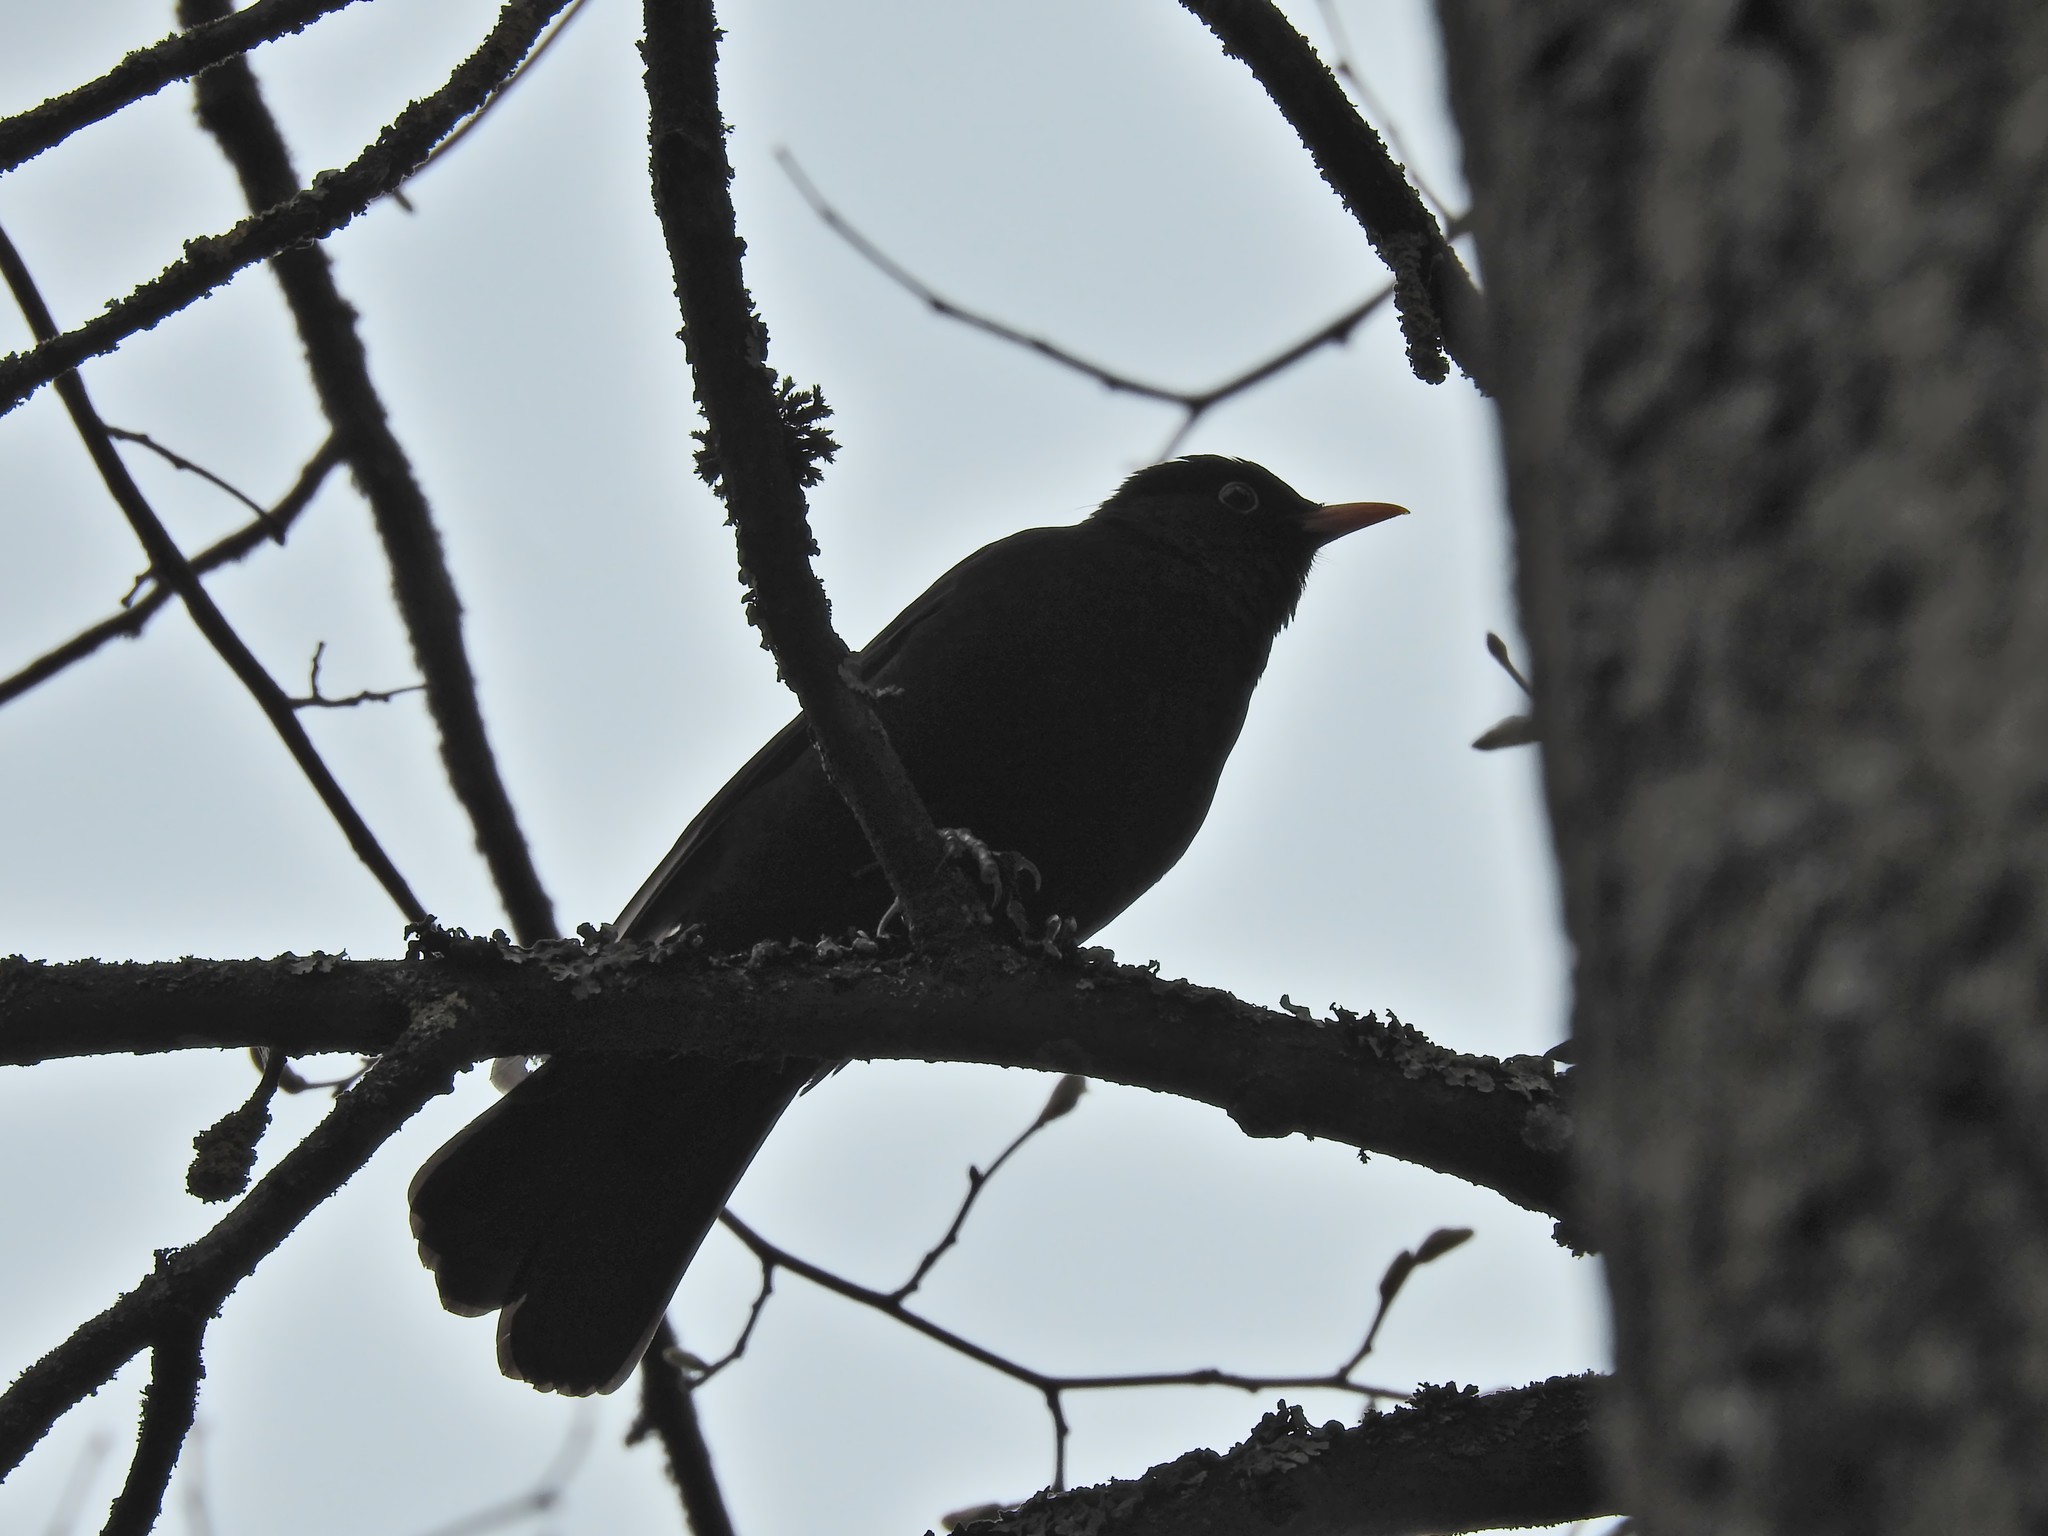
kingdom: Animalia
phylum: Chordata
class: Aves
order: Passeriformes
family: Turdidae
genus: Turdus
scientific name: Turdus merula
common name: Common blackbird
